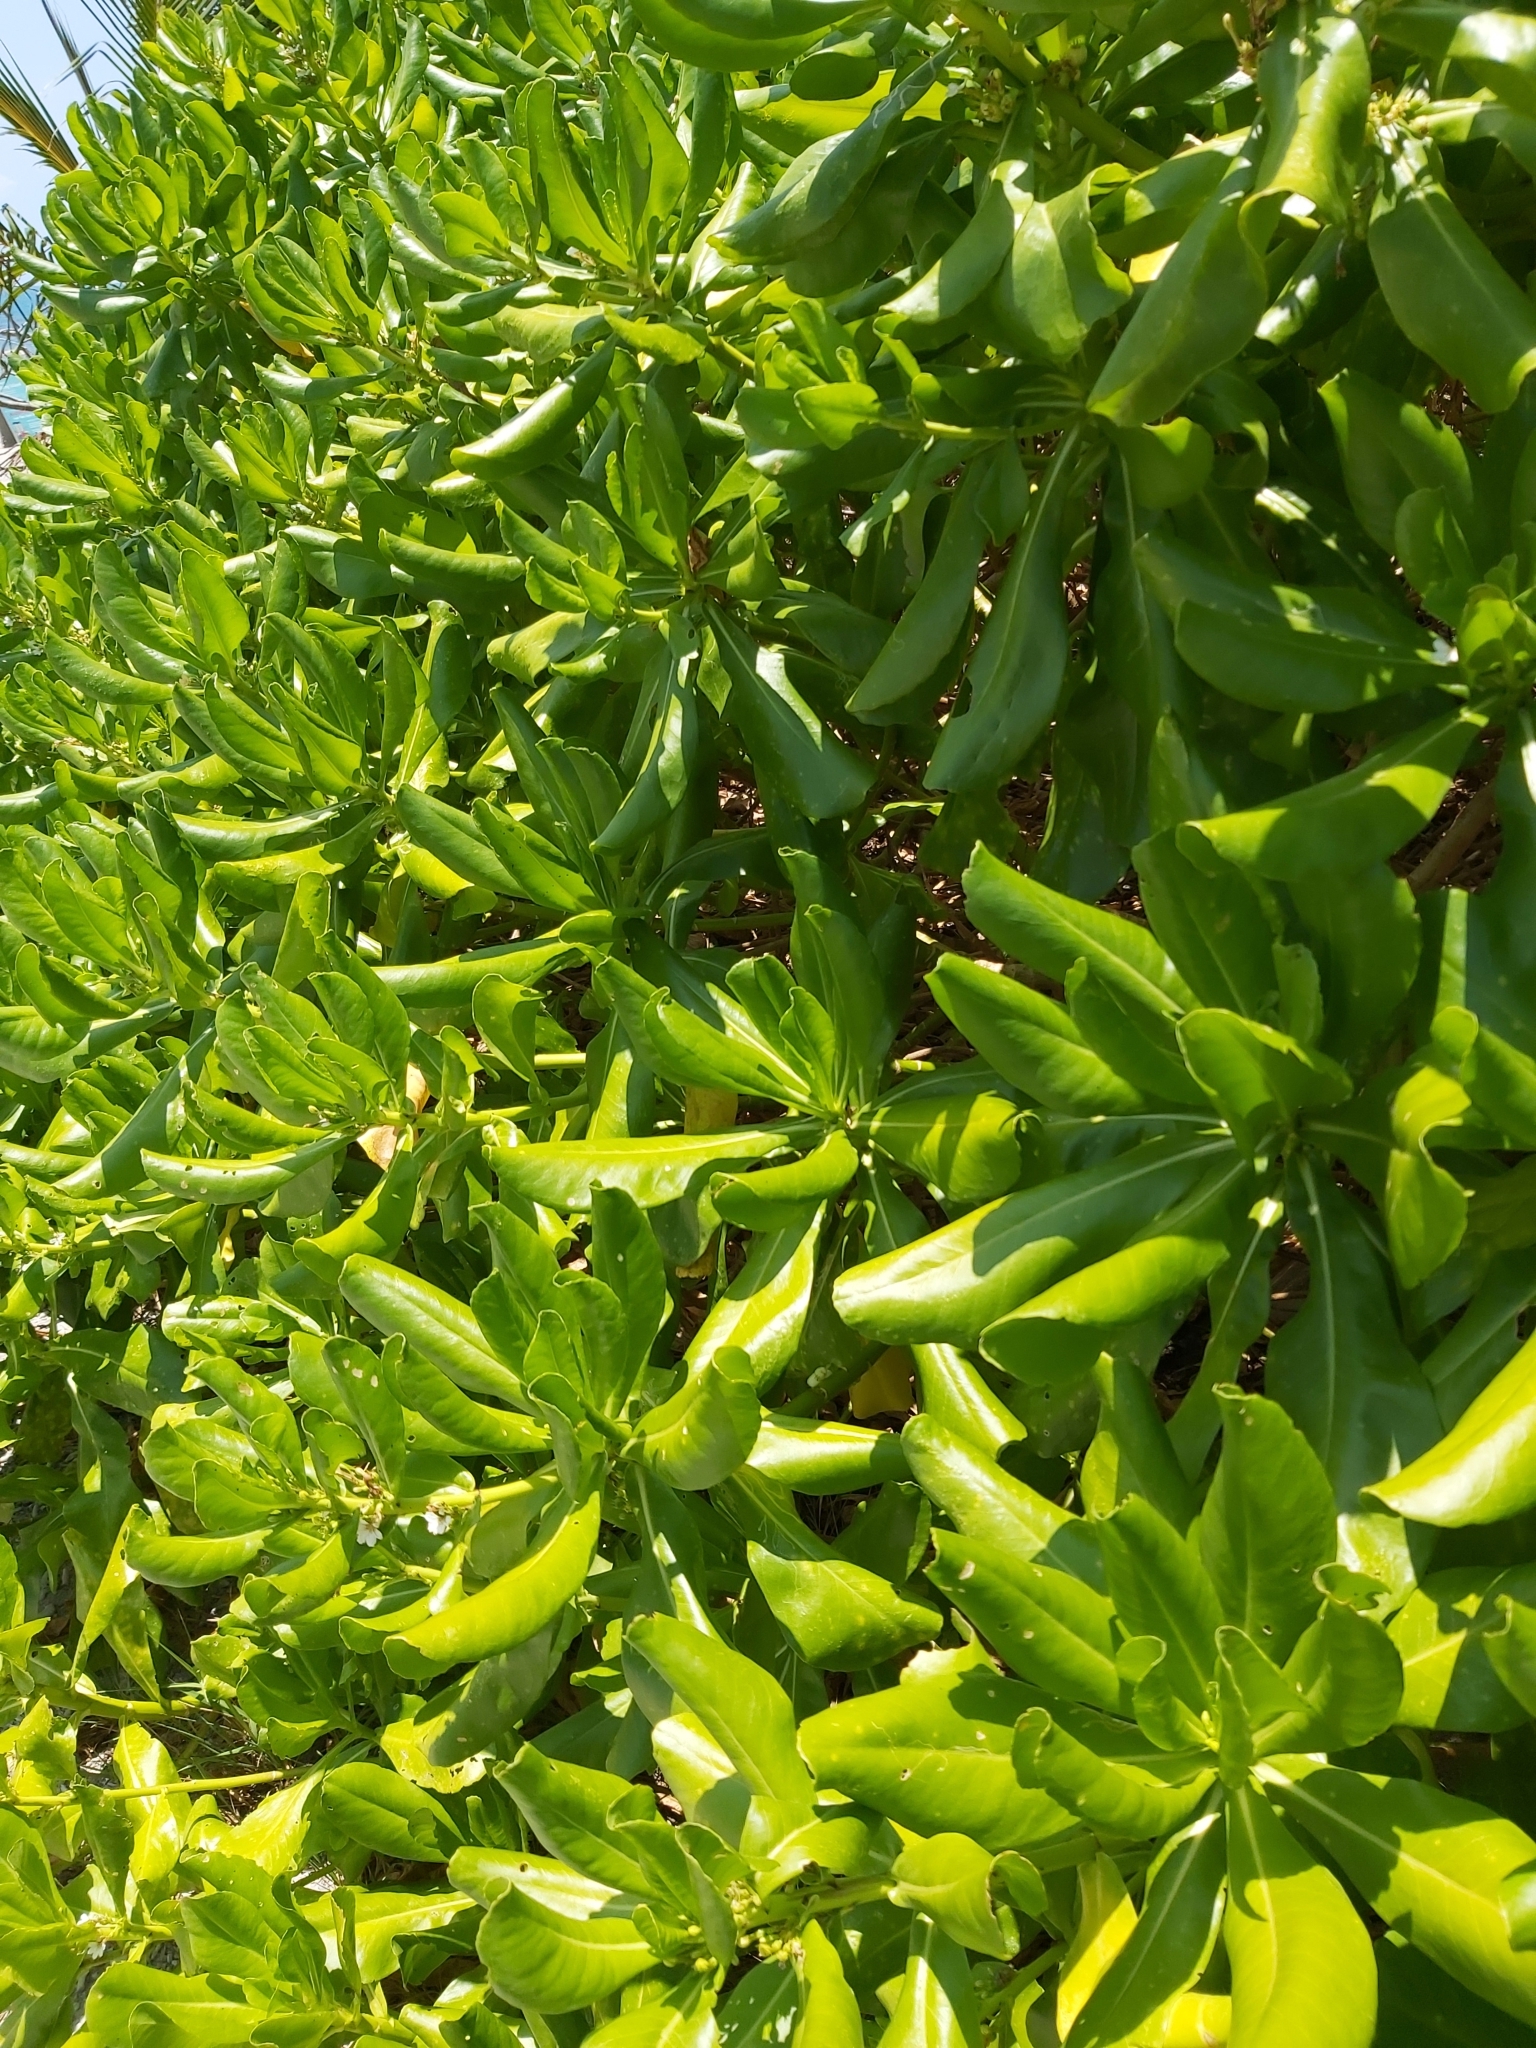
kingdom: Plantae
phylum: Tracheophyta
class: Magnoliopsida
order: Asterales
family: Goodeniaceae
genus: Scaevola
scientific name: Scaevola taccada
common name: Sea lettucetree
